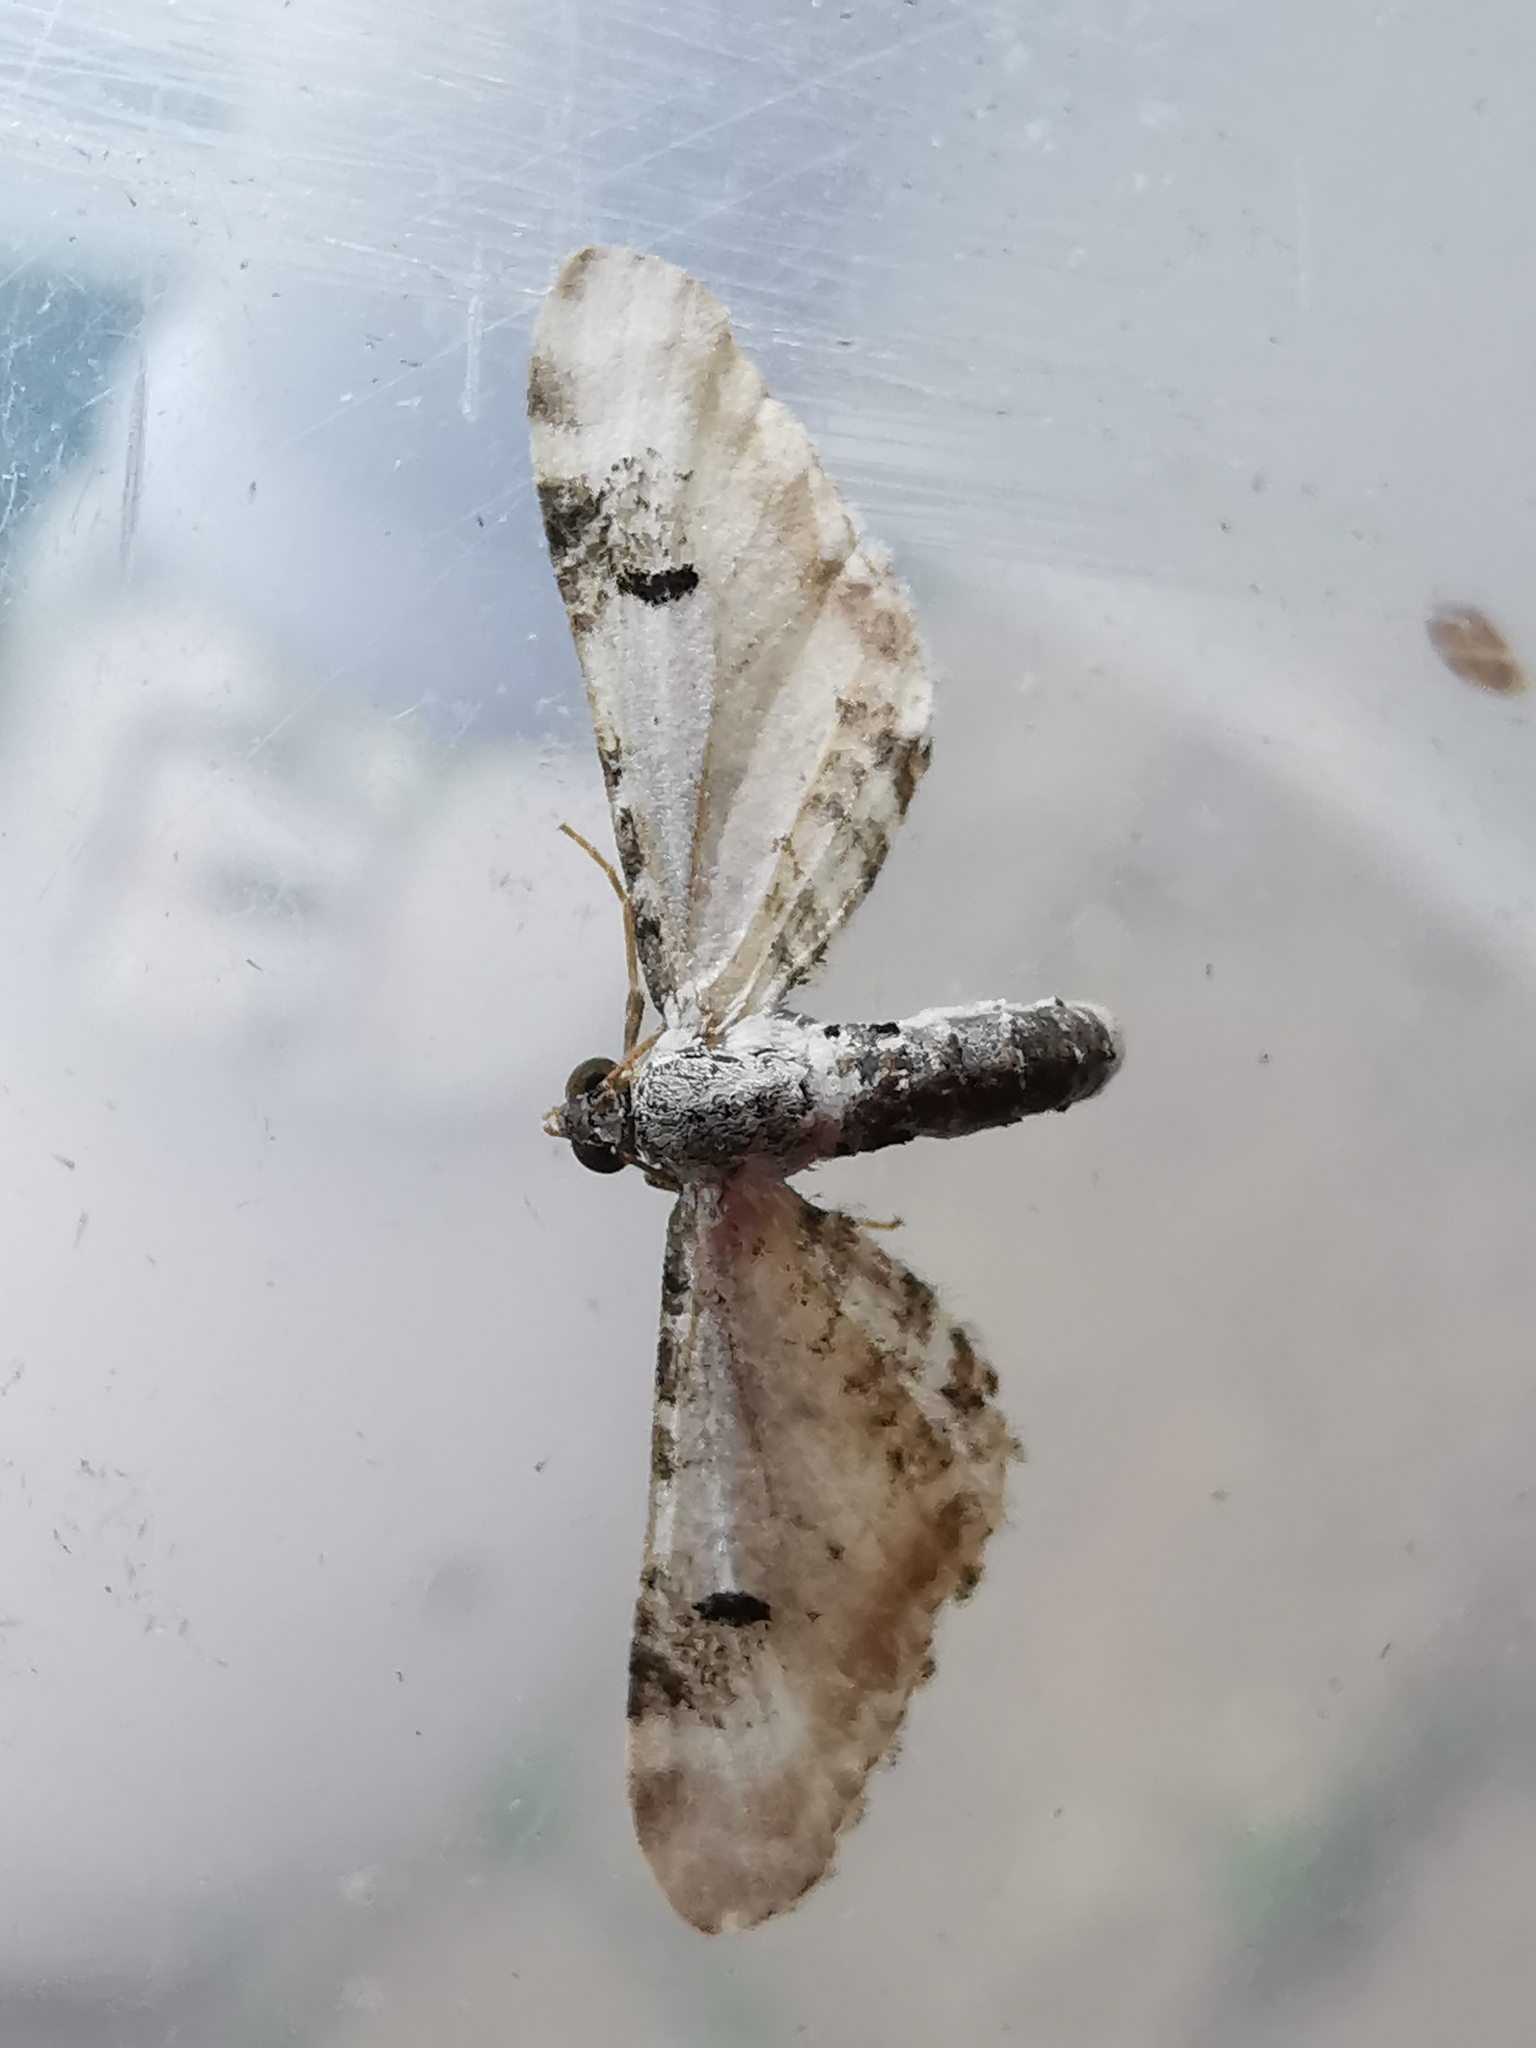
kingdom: Animalia
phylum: Arthropoda
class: Insecta
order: Lepidoptera
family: Geometridae
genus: Eupithecia
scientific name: Eupithecia centaureata
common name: Lime-speck pug
